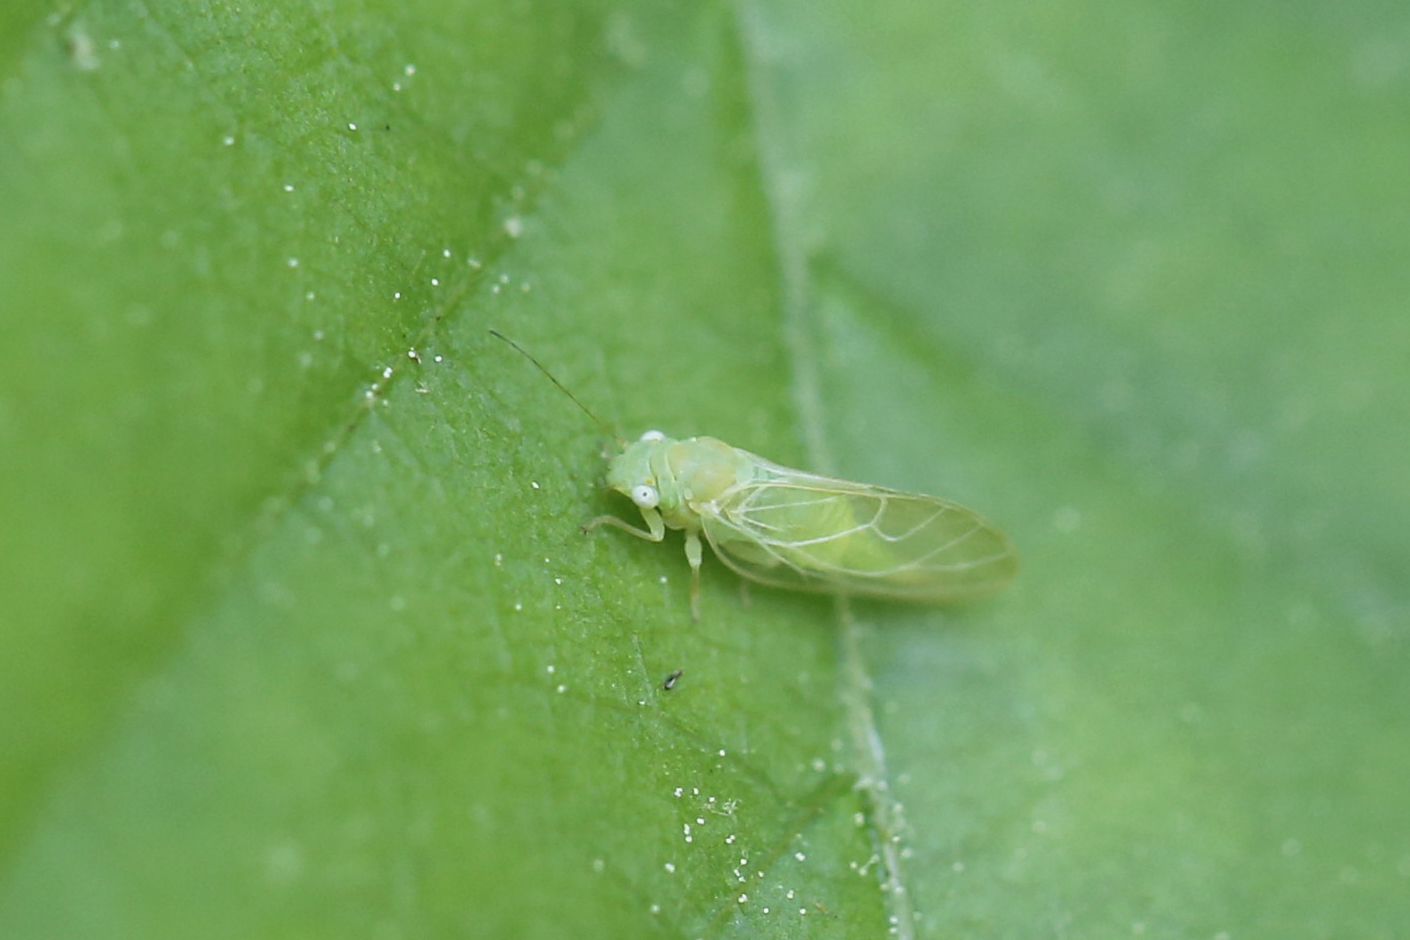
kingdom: Animalia
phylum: Arthropoda
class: Insecta
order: Hemiptera
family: Psyllidae
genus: Psylla
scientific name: Psylla carpinicola
